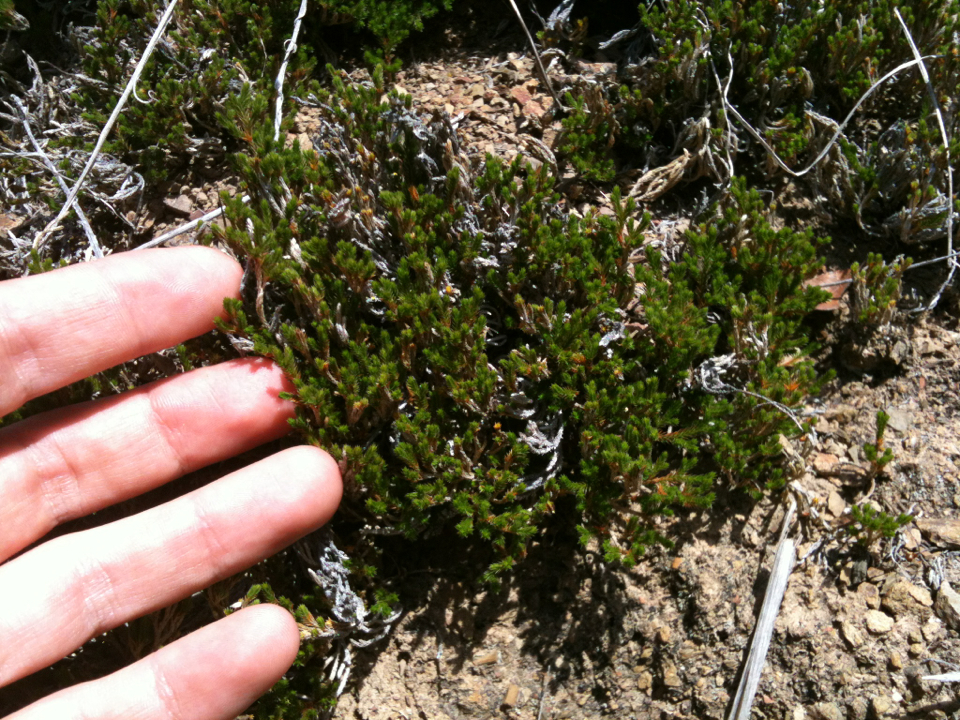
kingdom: Plantae
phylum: Tracheophyta
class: Lycopodiopsida
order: Selaginellales
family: Selaginellaceae
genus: Selaginella
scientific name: Selaginella bigelovii
